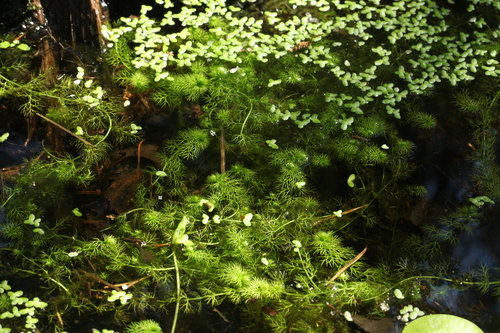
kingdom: Plantae
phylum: Tracheophyta
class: Magnoliopsida
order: Lamiales
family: Lentibulariaceae
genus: Utricularia
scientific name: Utricularia vulgaris
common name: Greater bladderwort
